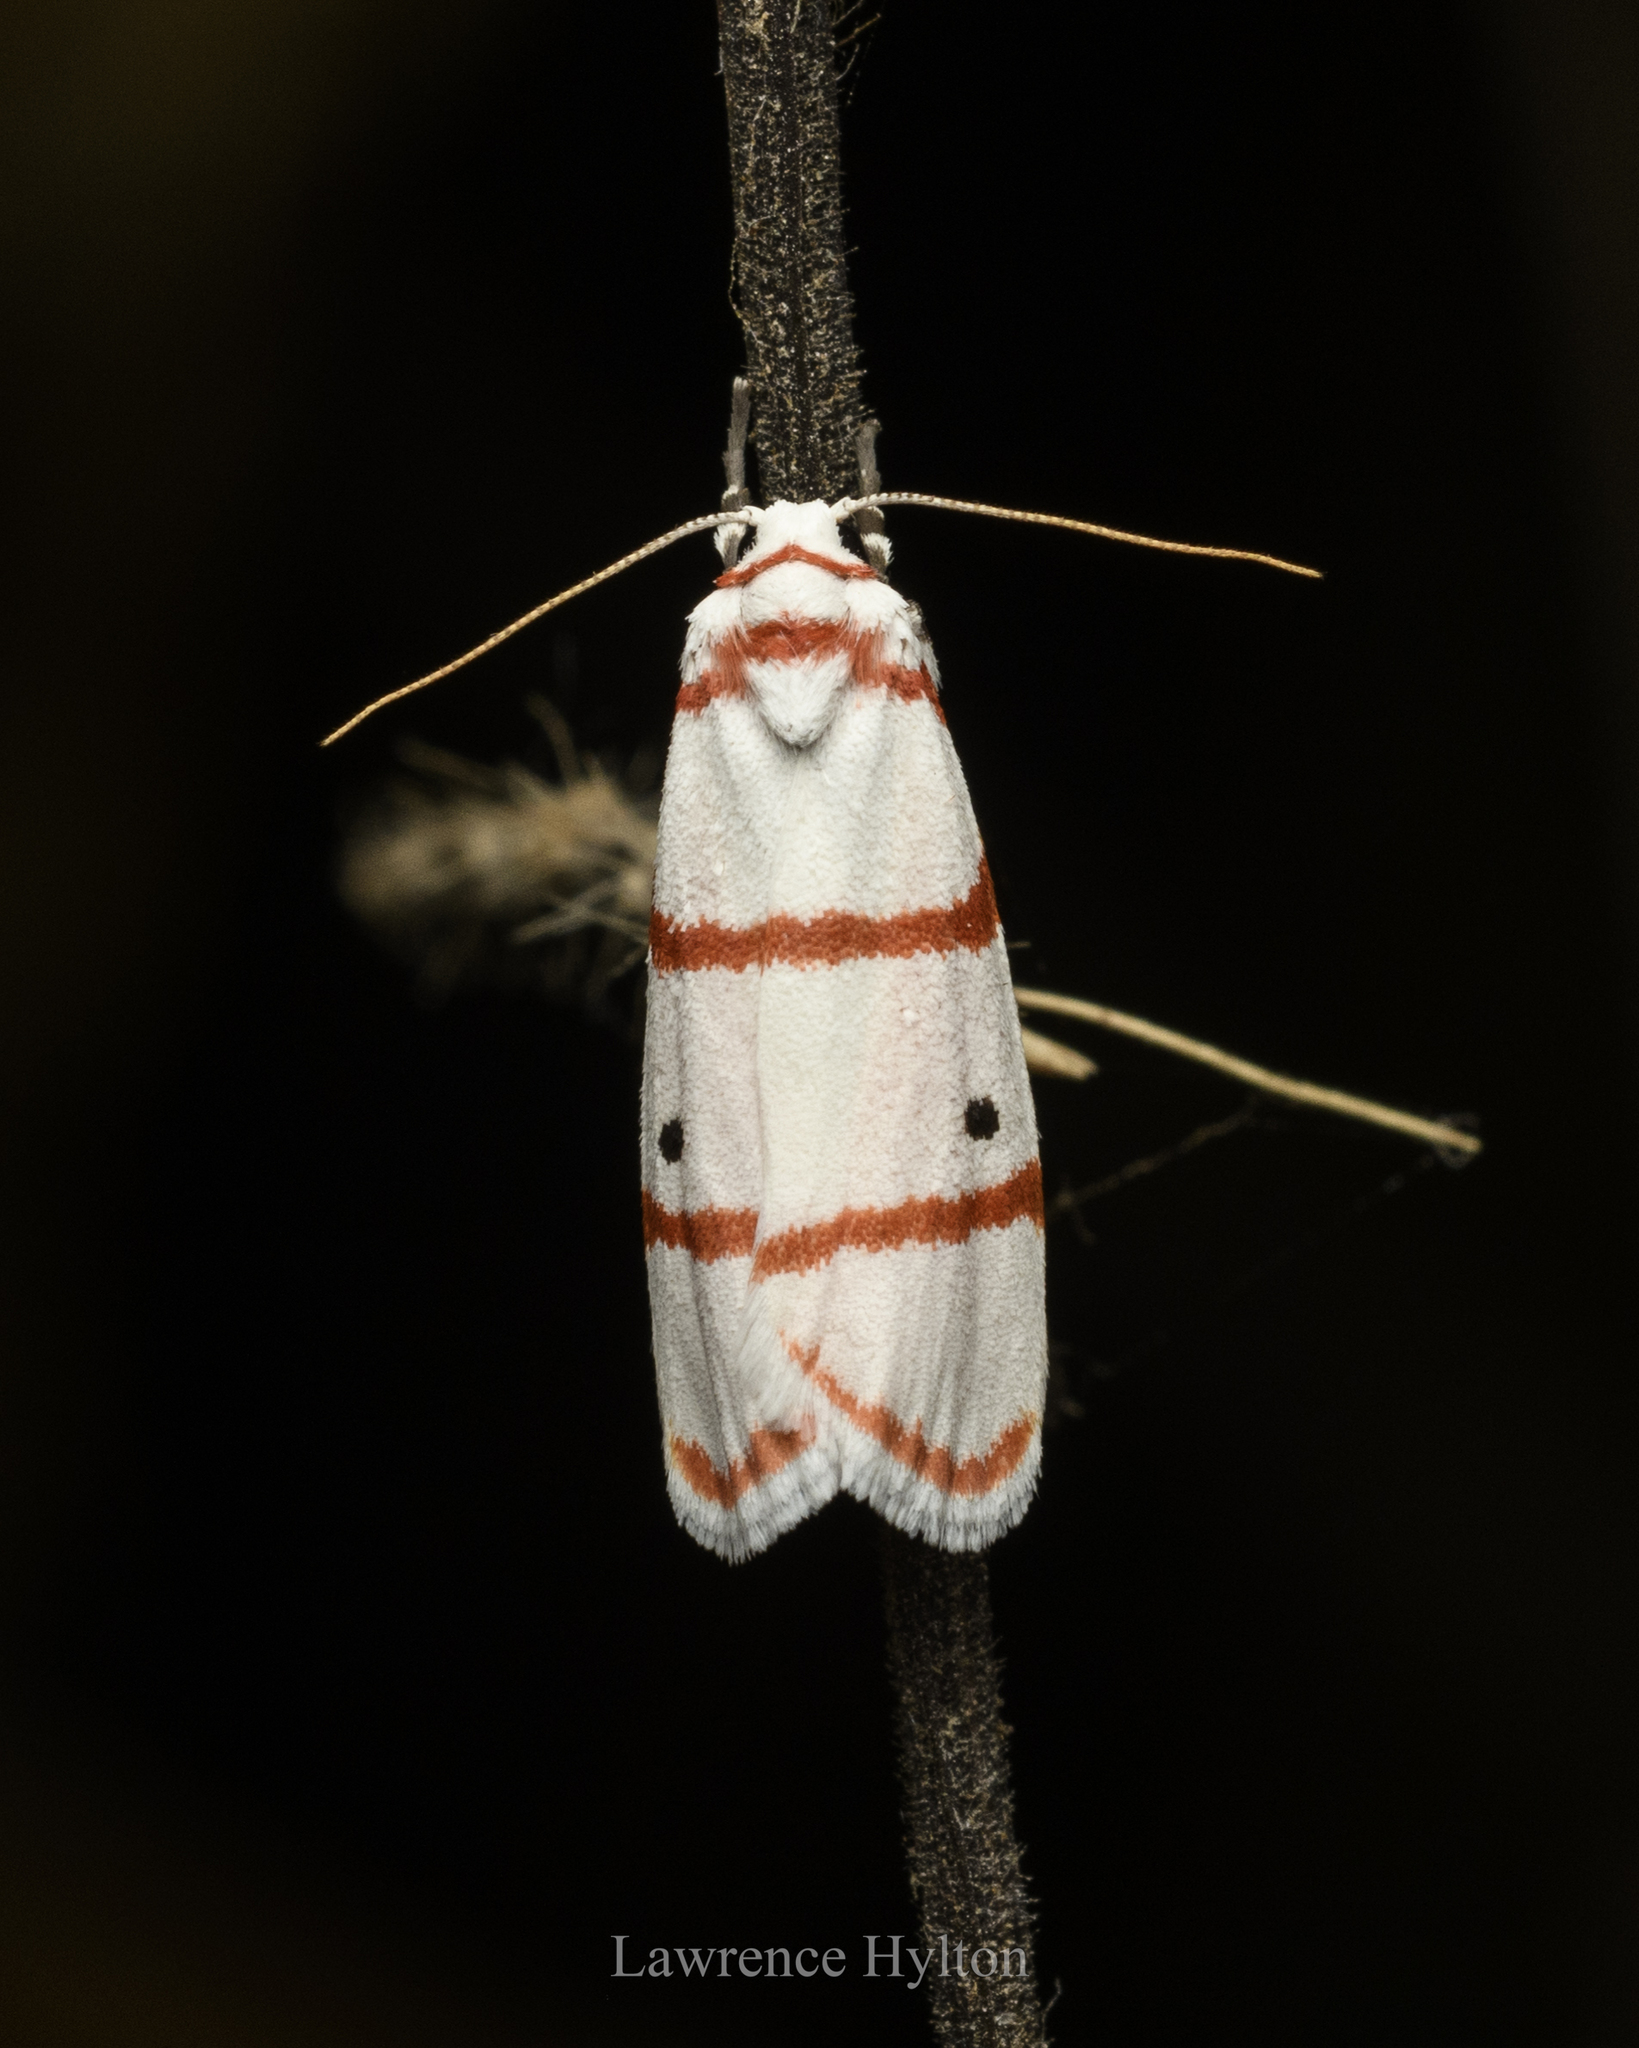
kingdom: Animalia
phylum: Arthropoda
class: Insecta
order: Lepidoptera
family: Erebidae
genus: Cyana
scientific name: Cyana gelida
